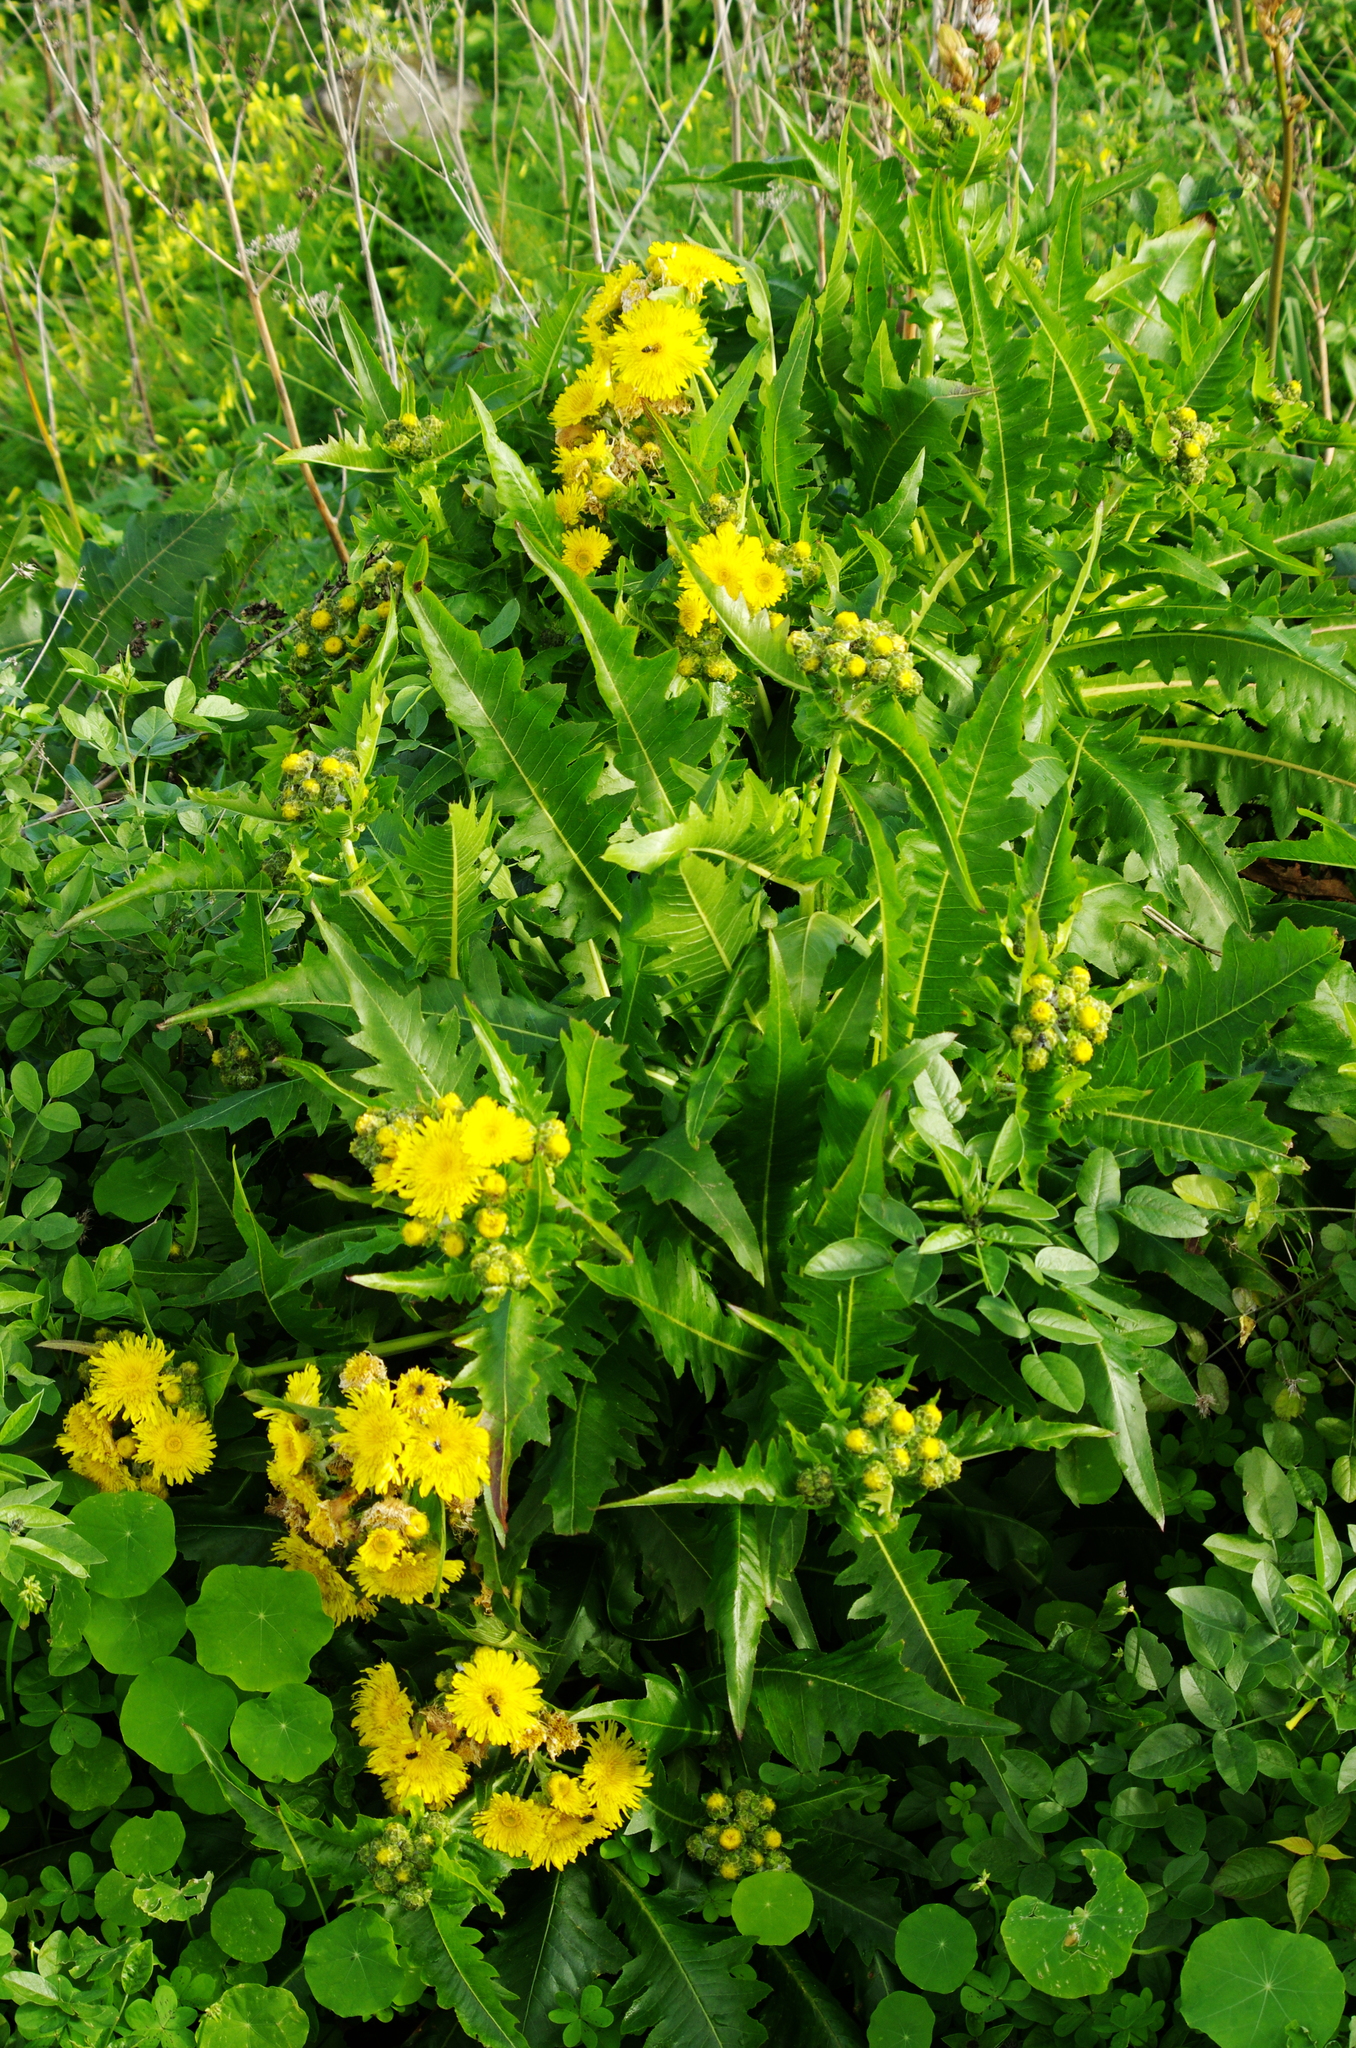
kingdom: Plantae
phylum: Tracheophyta
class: Magnoliopsida
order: Asterales
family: Asteraceae
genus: Sonchus
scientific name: Sonchus acaulis
